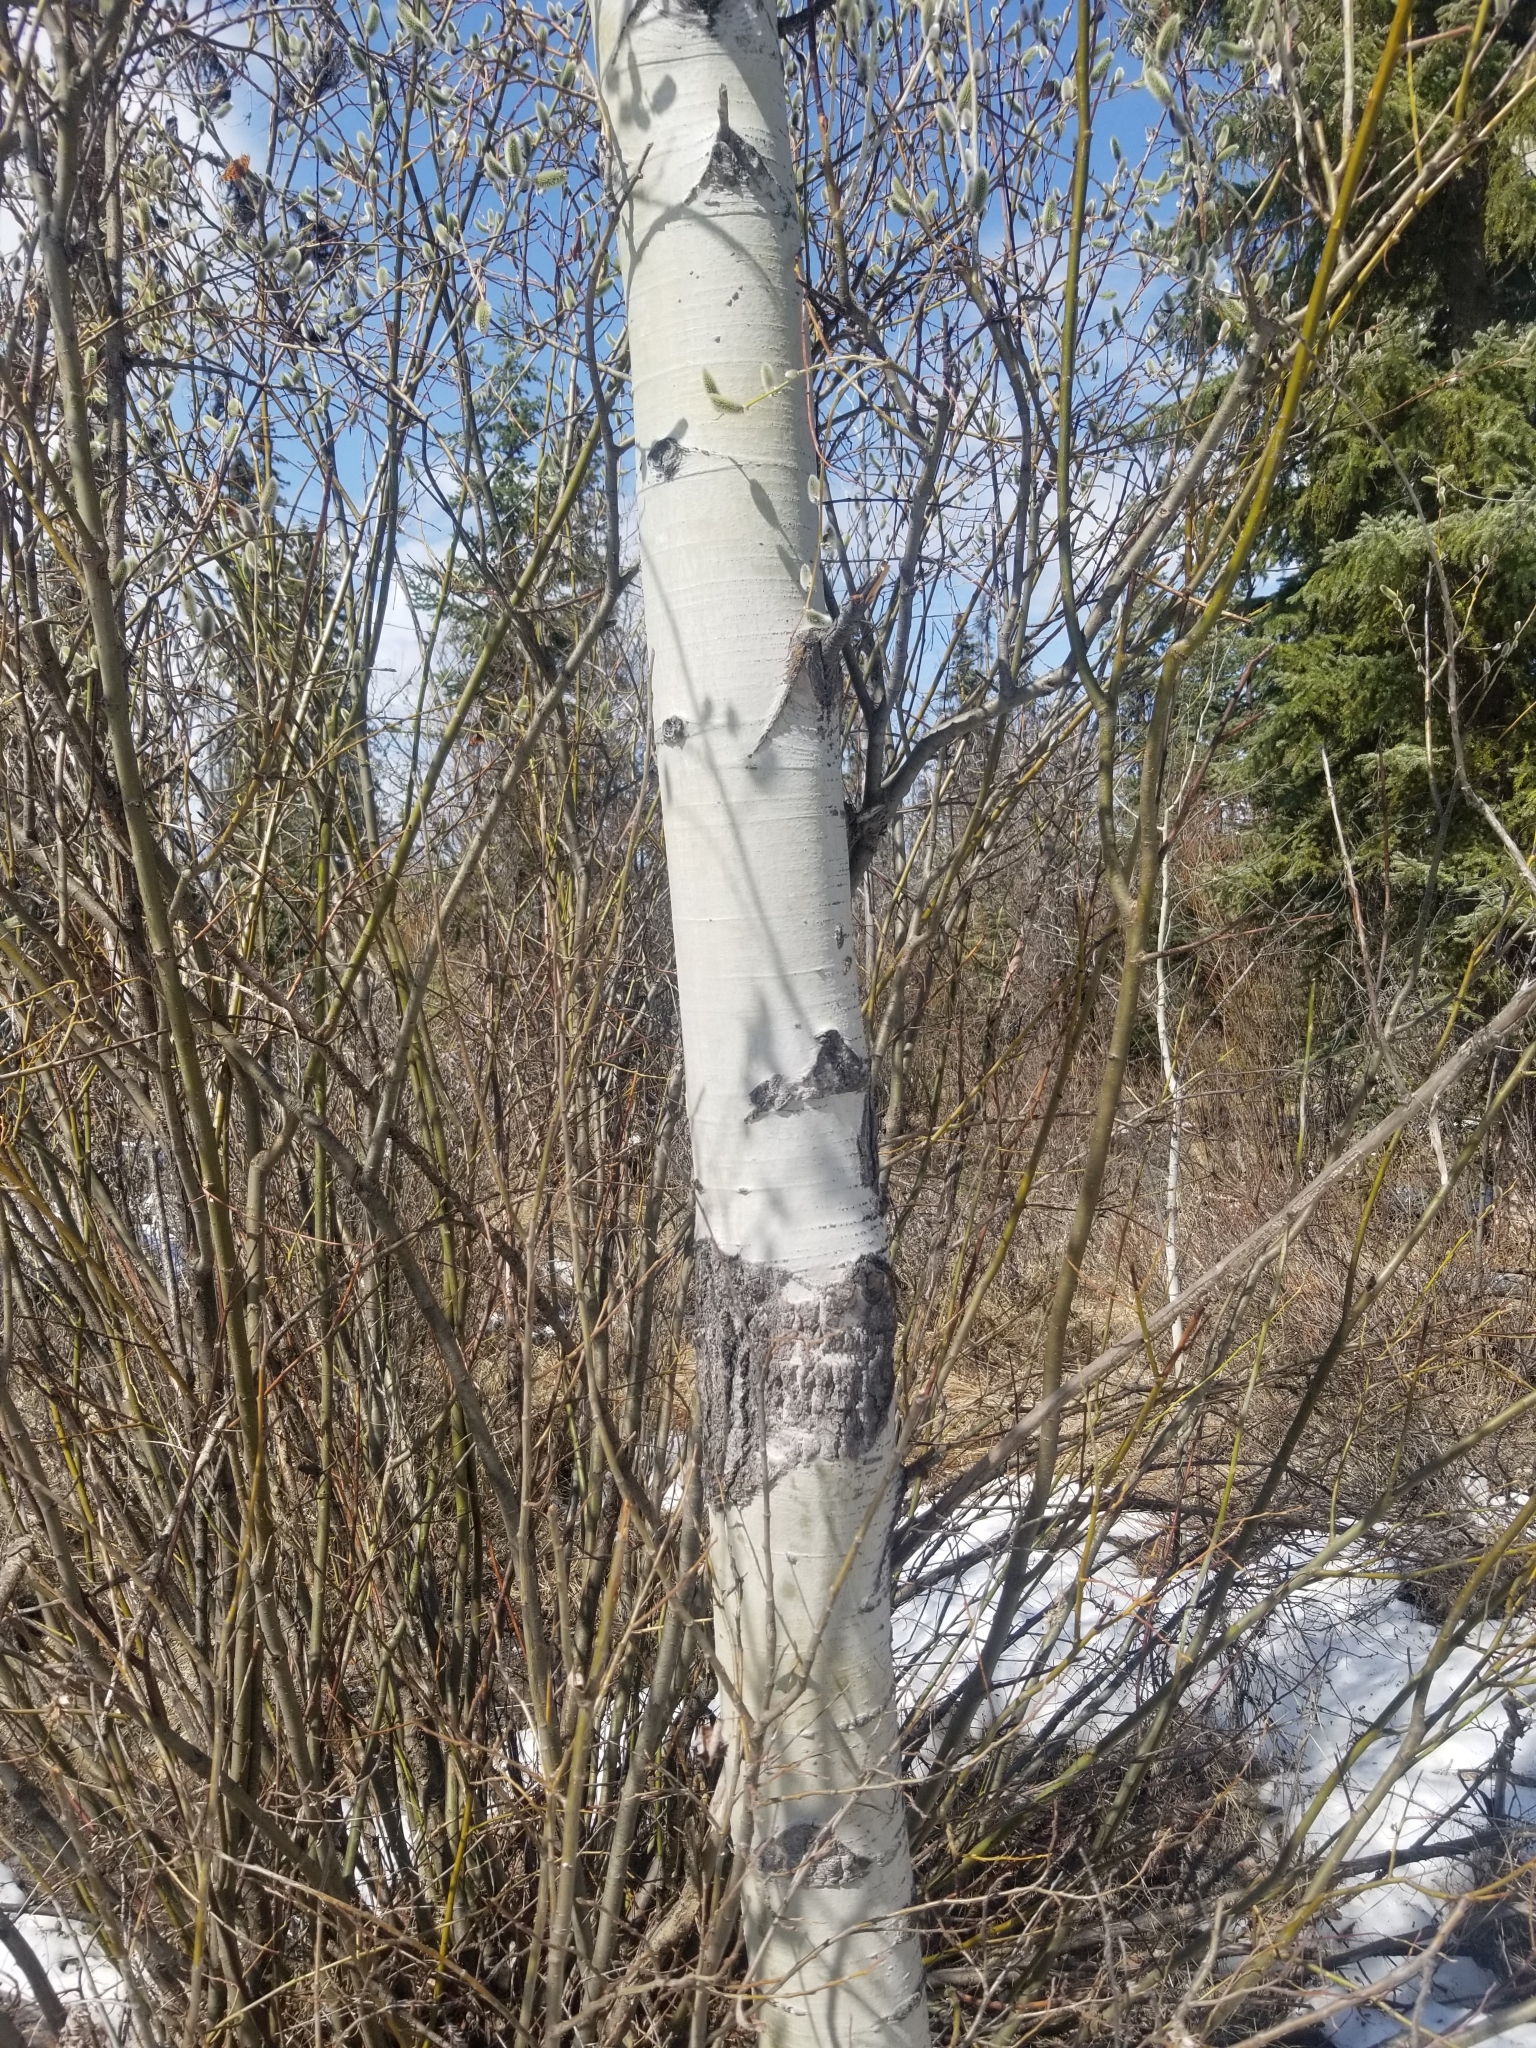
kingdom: Plantae
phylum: Tracheophyta
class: Magnoliopsida
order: Malpighiales
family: Salicaceae
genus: Populus
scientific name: Populus tremuloides
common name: Quaking aspen
